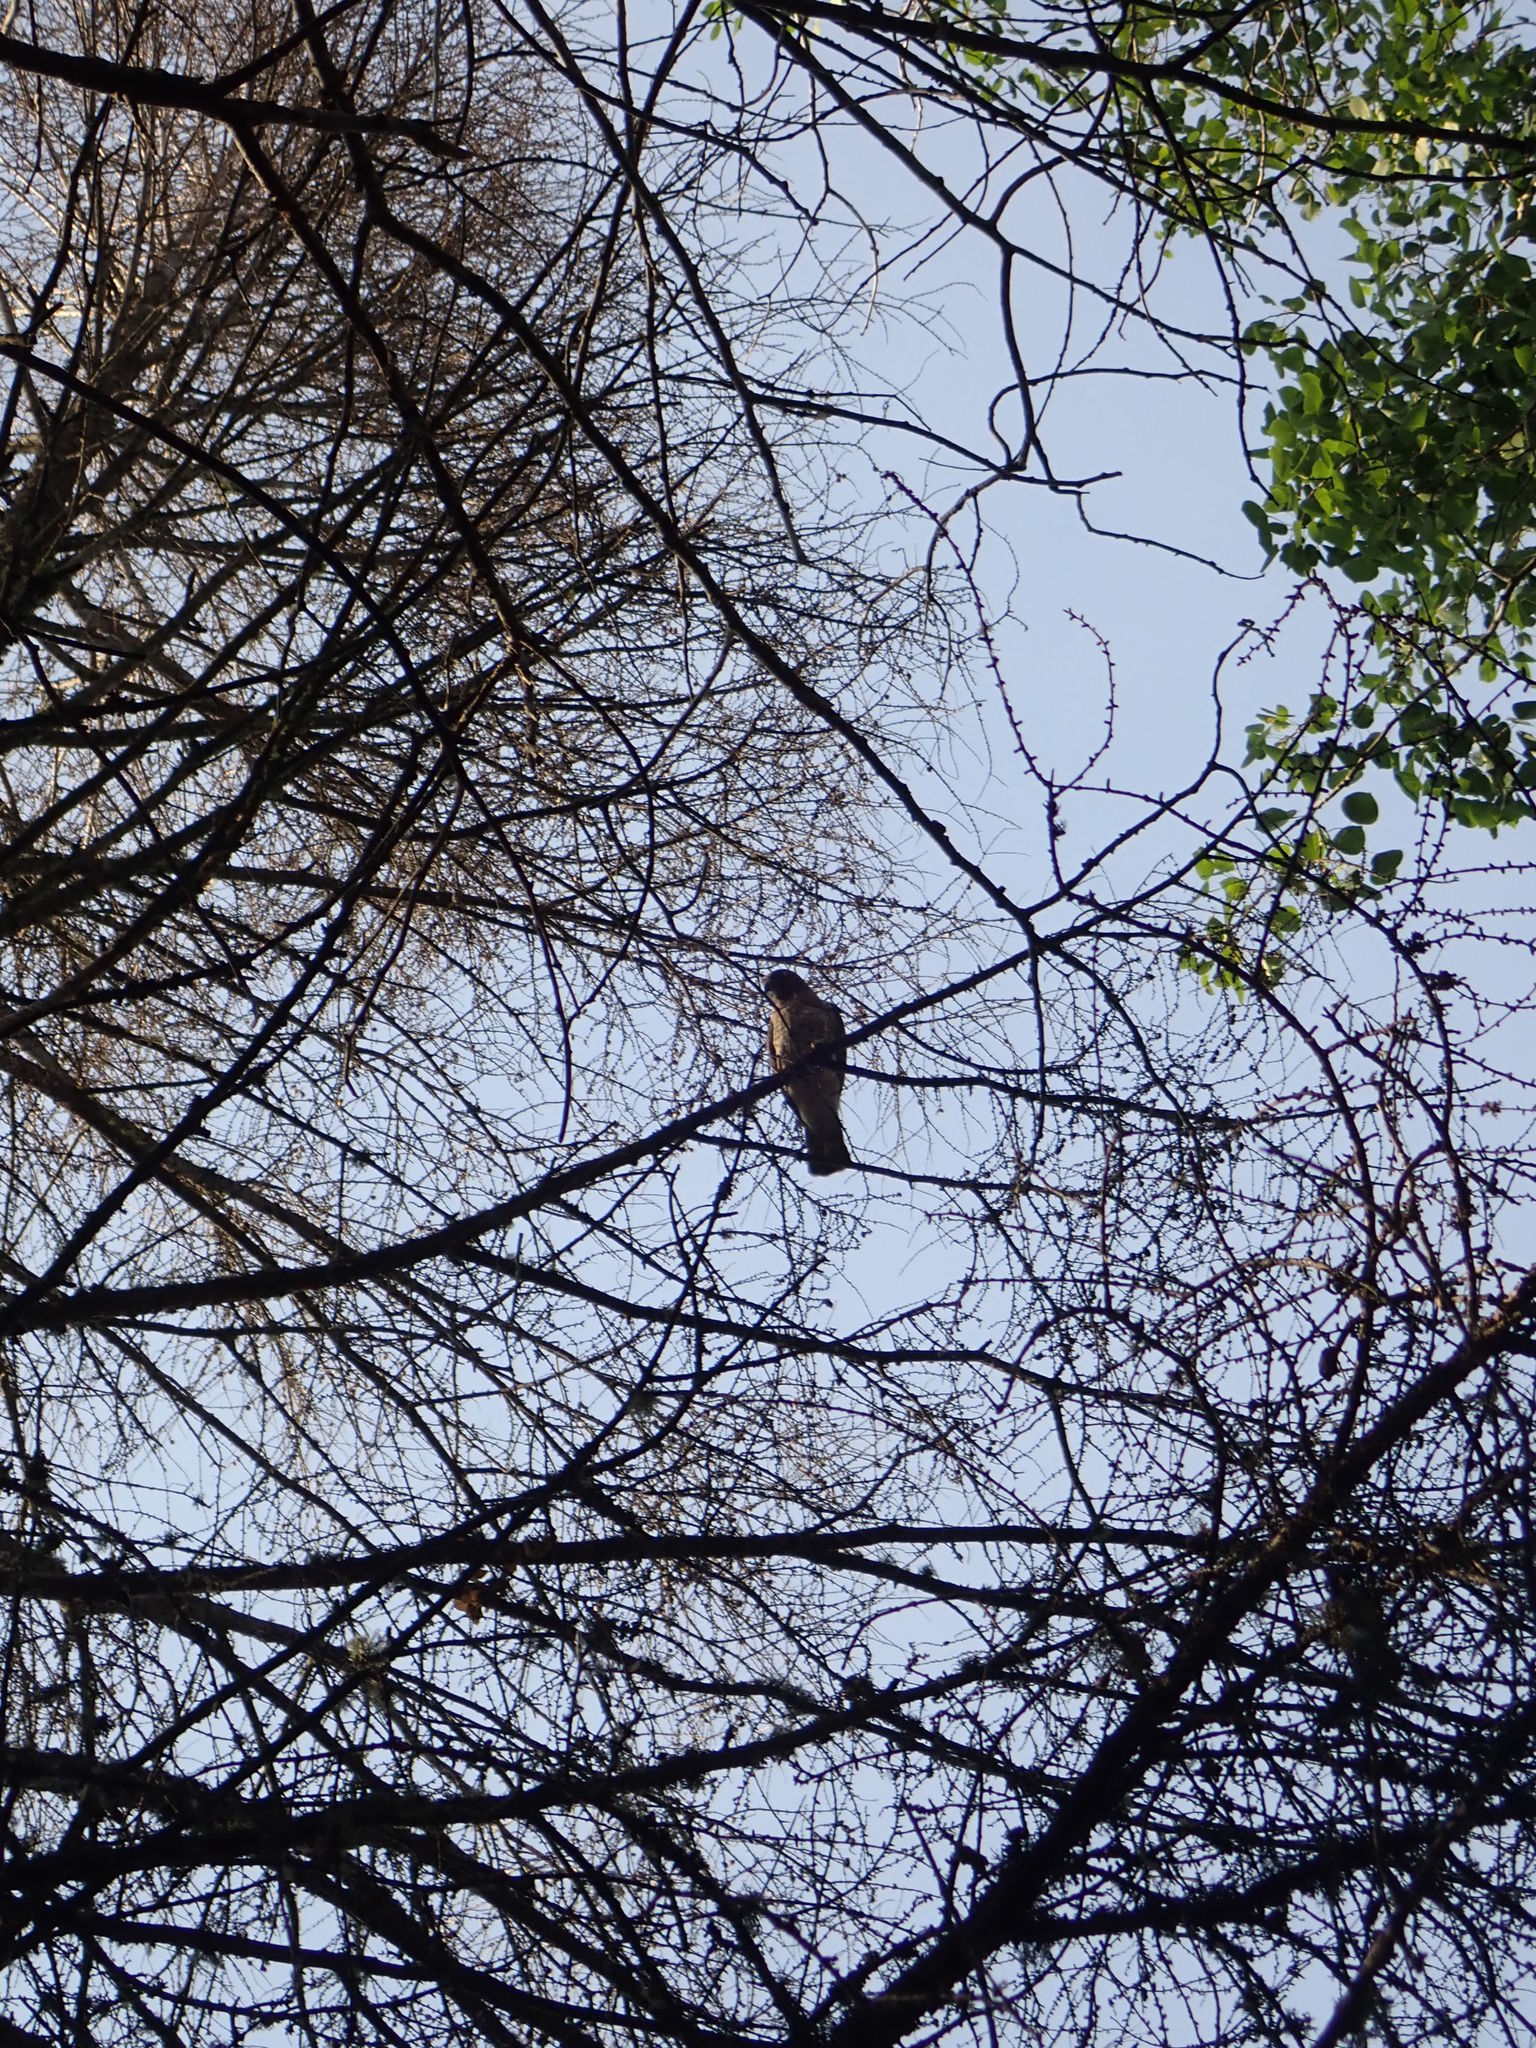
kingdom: Animalia
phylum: Chordata
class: Aves
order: Accipitriformes
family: Accipitridae
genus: Buteo
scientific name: Buteo platypterus
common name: Broad-winged hawk
